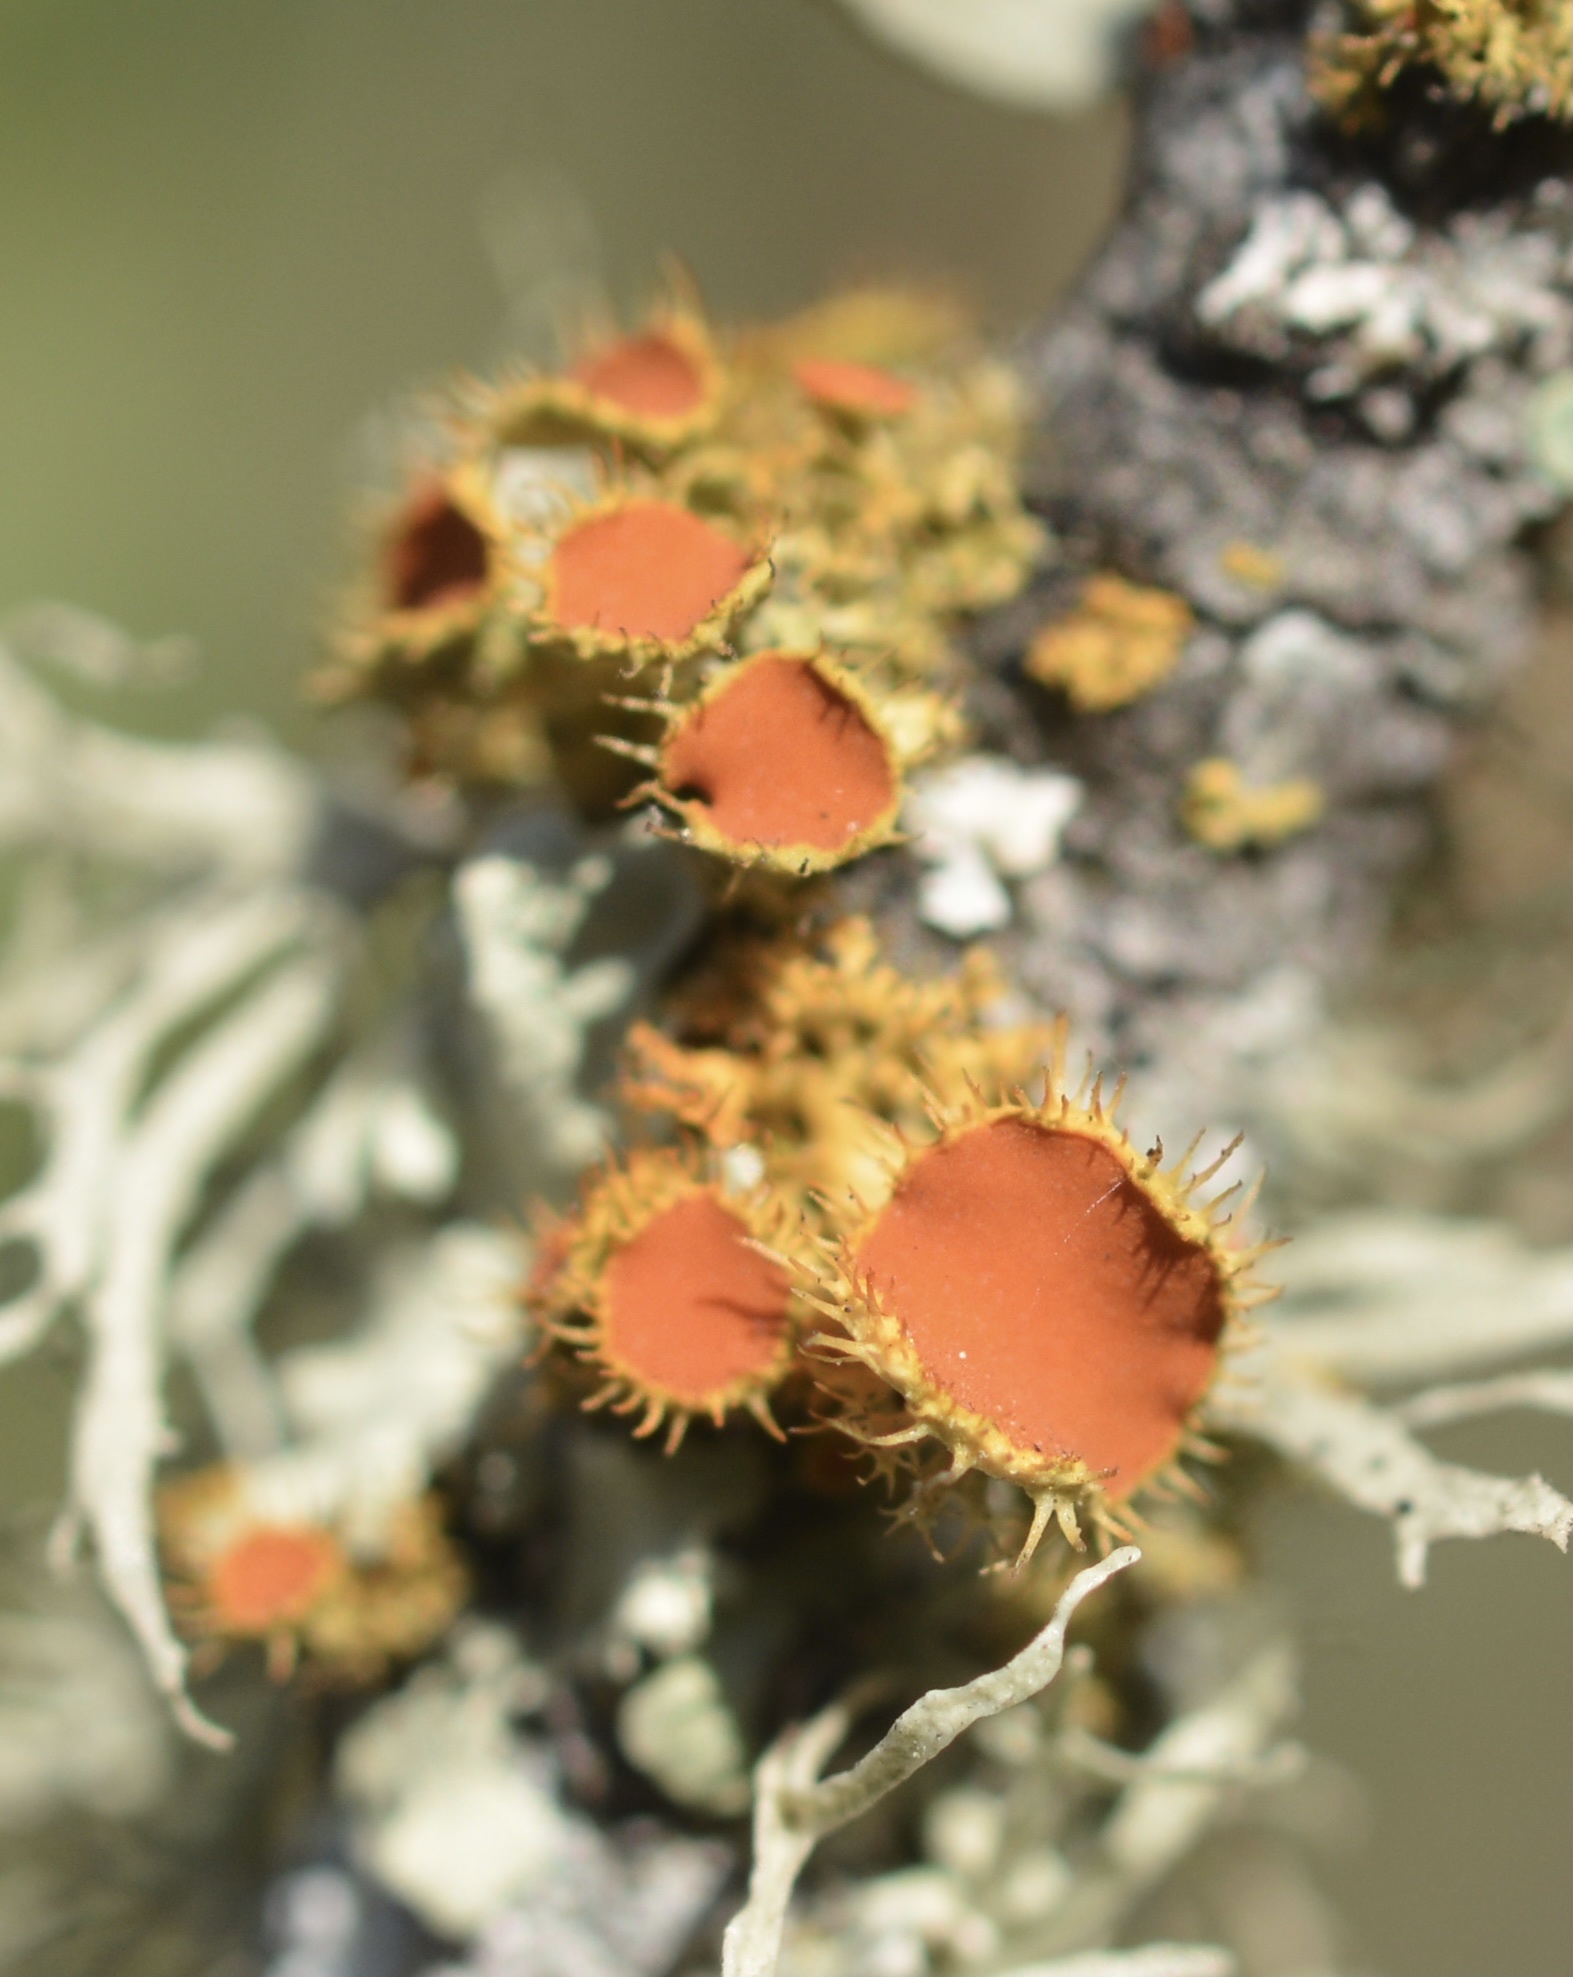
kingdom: Fungi
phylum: Ascomycota
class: Lecanoromycetes
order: Teloschistales
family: Teloschistaceae
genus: Niorma
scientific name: Niorma chrysophthalma
